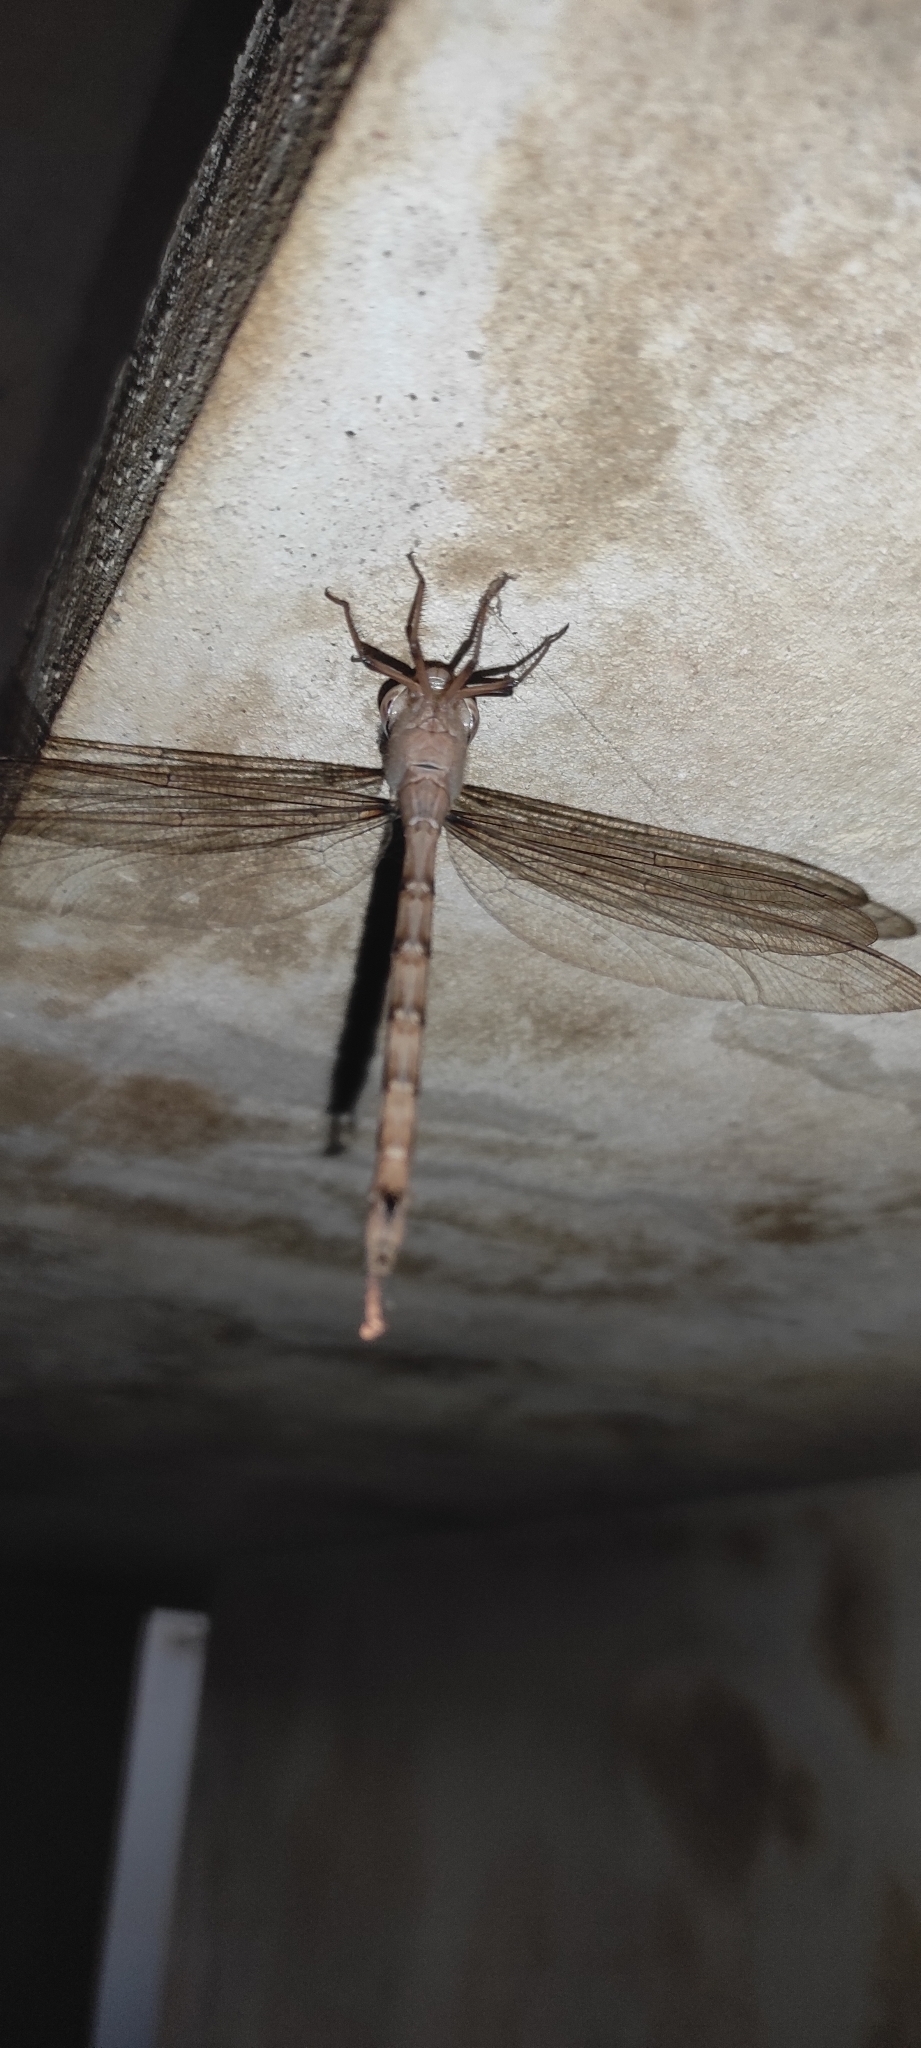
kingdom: Animalia
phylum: Arthropoda
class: Insecta
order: Odonata
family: Aeshnidae
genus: Gynacantha
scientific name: Gynacantha dravida
